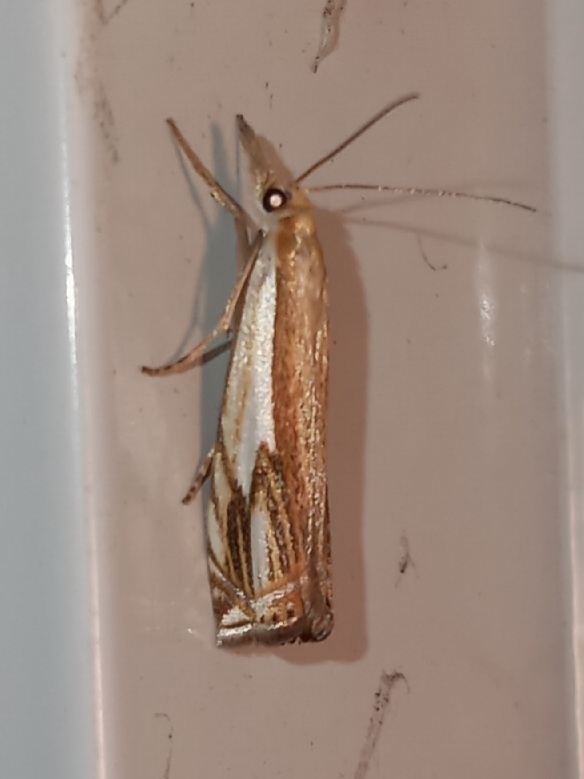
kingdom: Animalia
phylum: Arthropoda
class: Insecta
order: Lepidoptera
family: Crambidae
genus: Crambus
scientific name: Crambus agitatellus
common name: Double-banded grass-veneer
